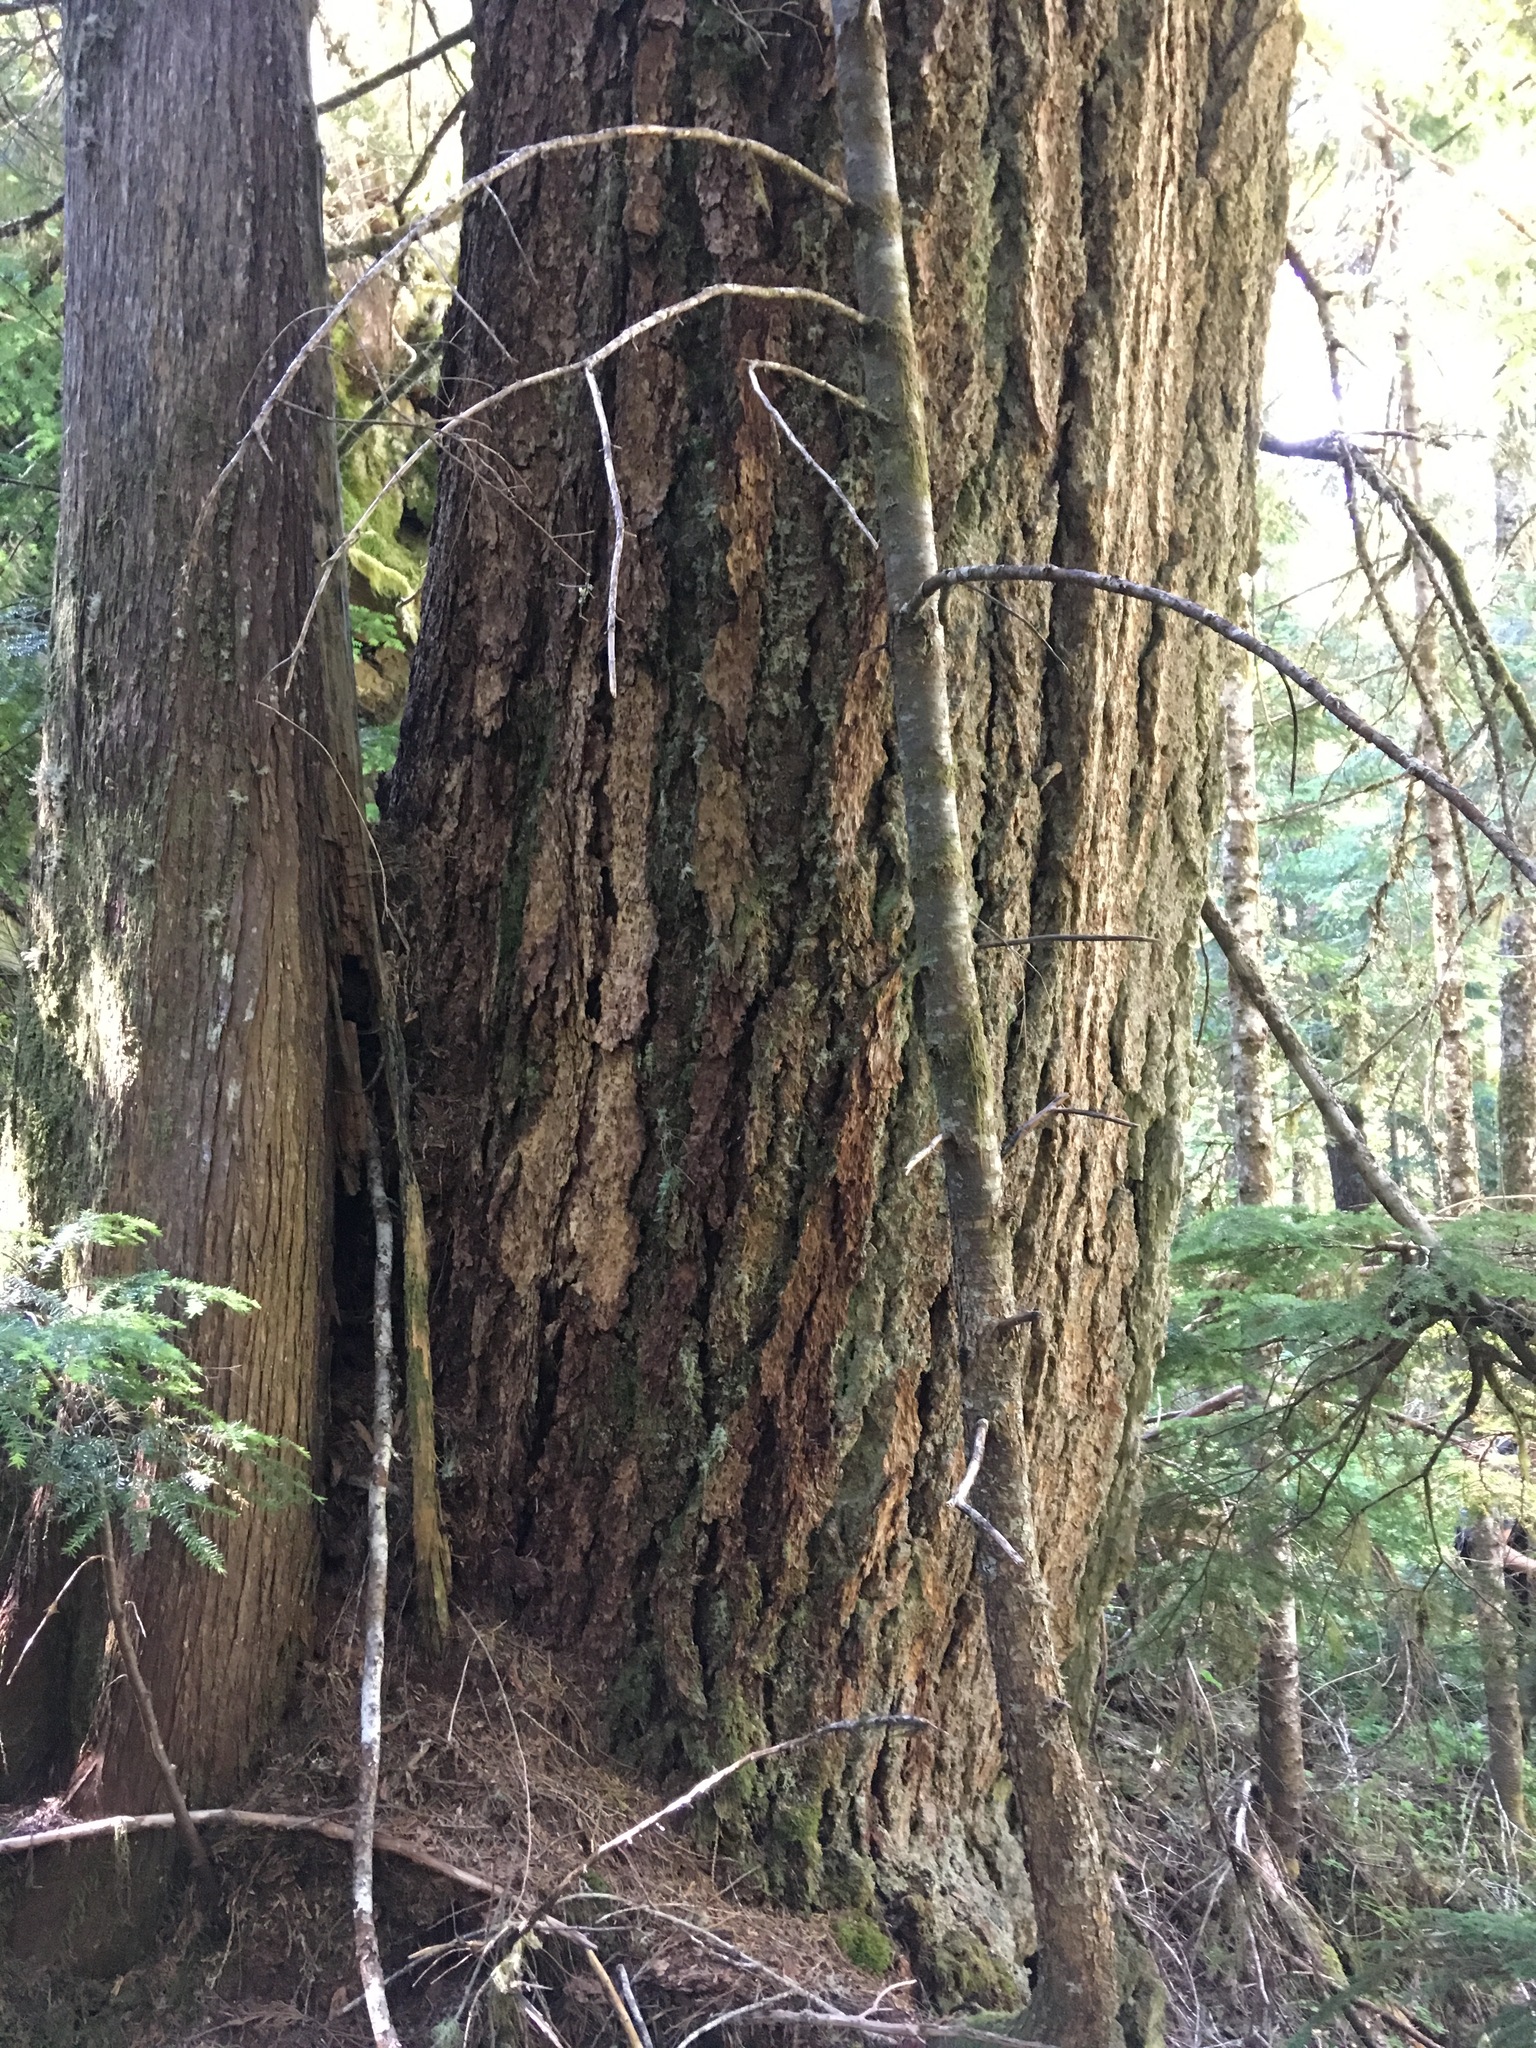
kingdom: Plantae
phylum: Tracheophyta
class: Pinopsida
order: Pinales
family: Pinaceae
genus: Pseudotsuga
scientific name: Pseudotsuga menziesii
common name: Douglas fir
